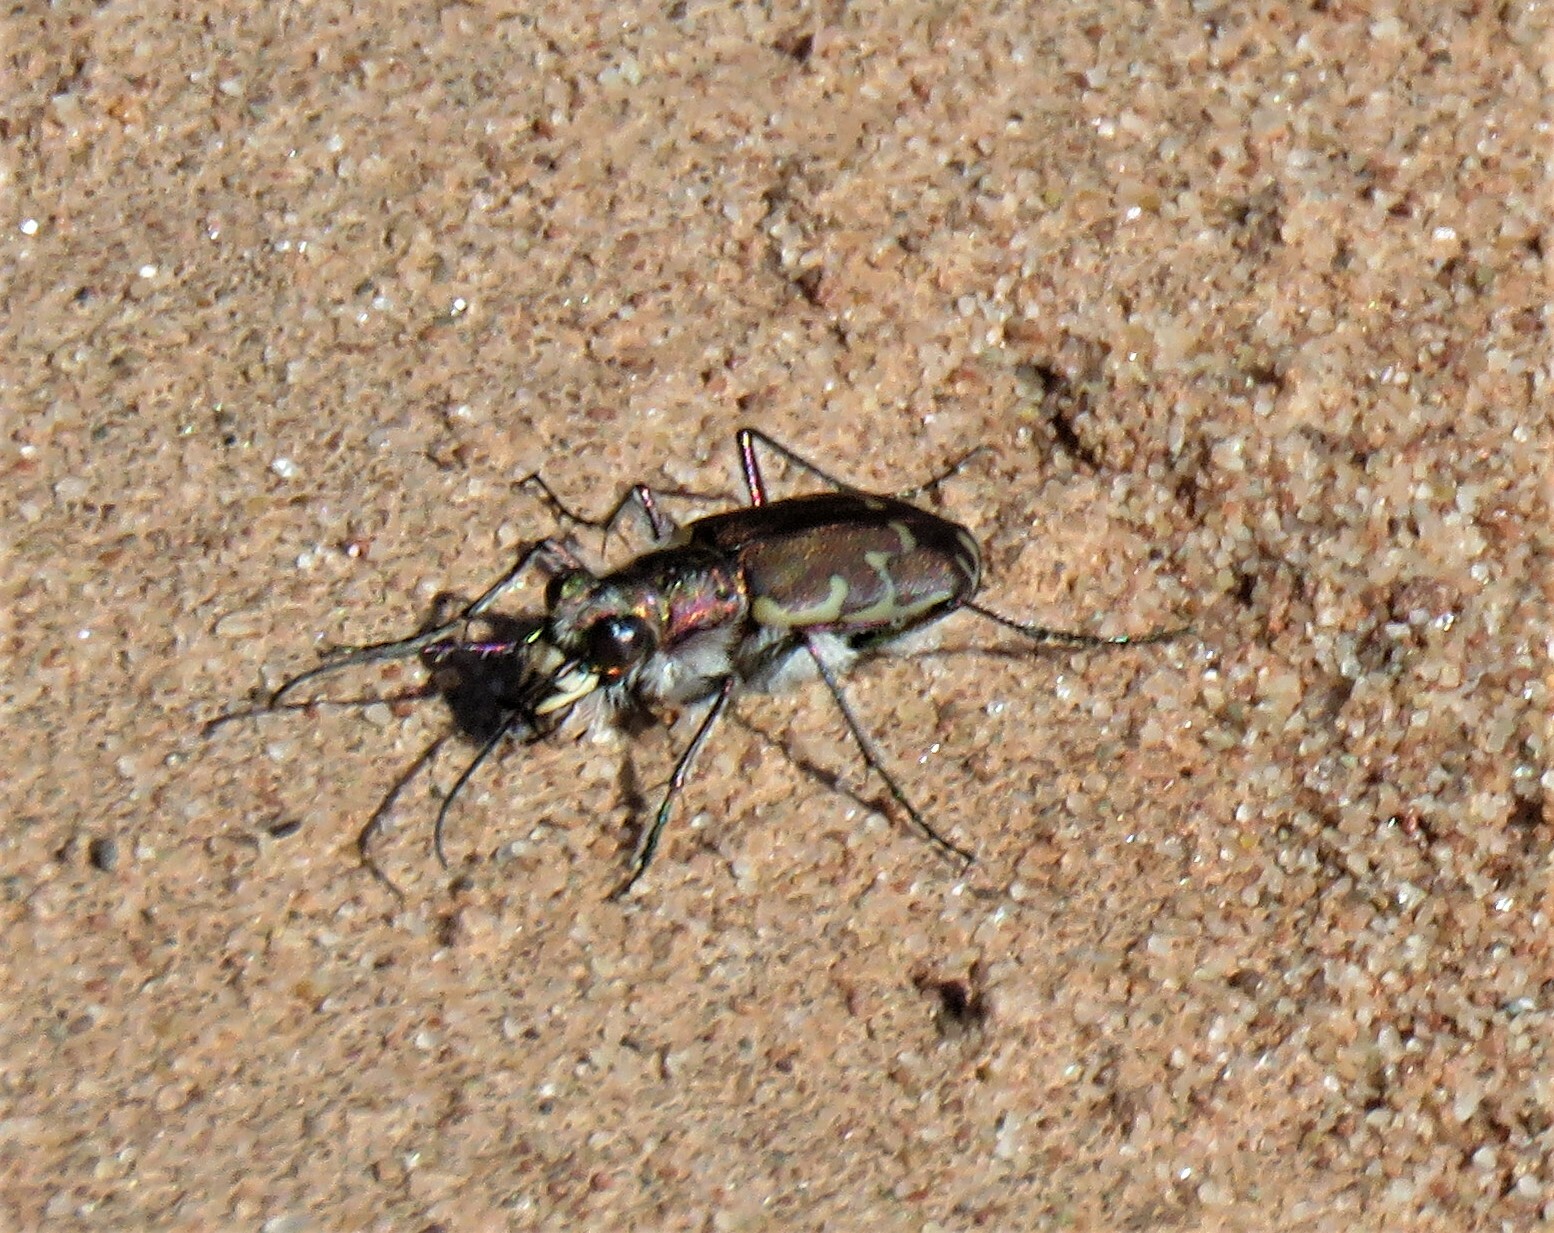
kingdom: Animalia
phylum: Arthropoda
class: Insecta
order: Coleoptera
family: Carabidae
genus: Cicindela
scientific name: Cicindela repanda
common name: Bronzed tiger beetle
